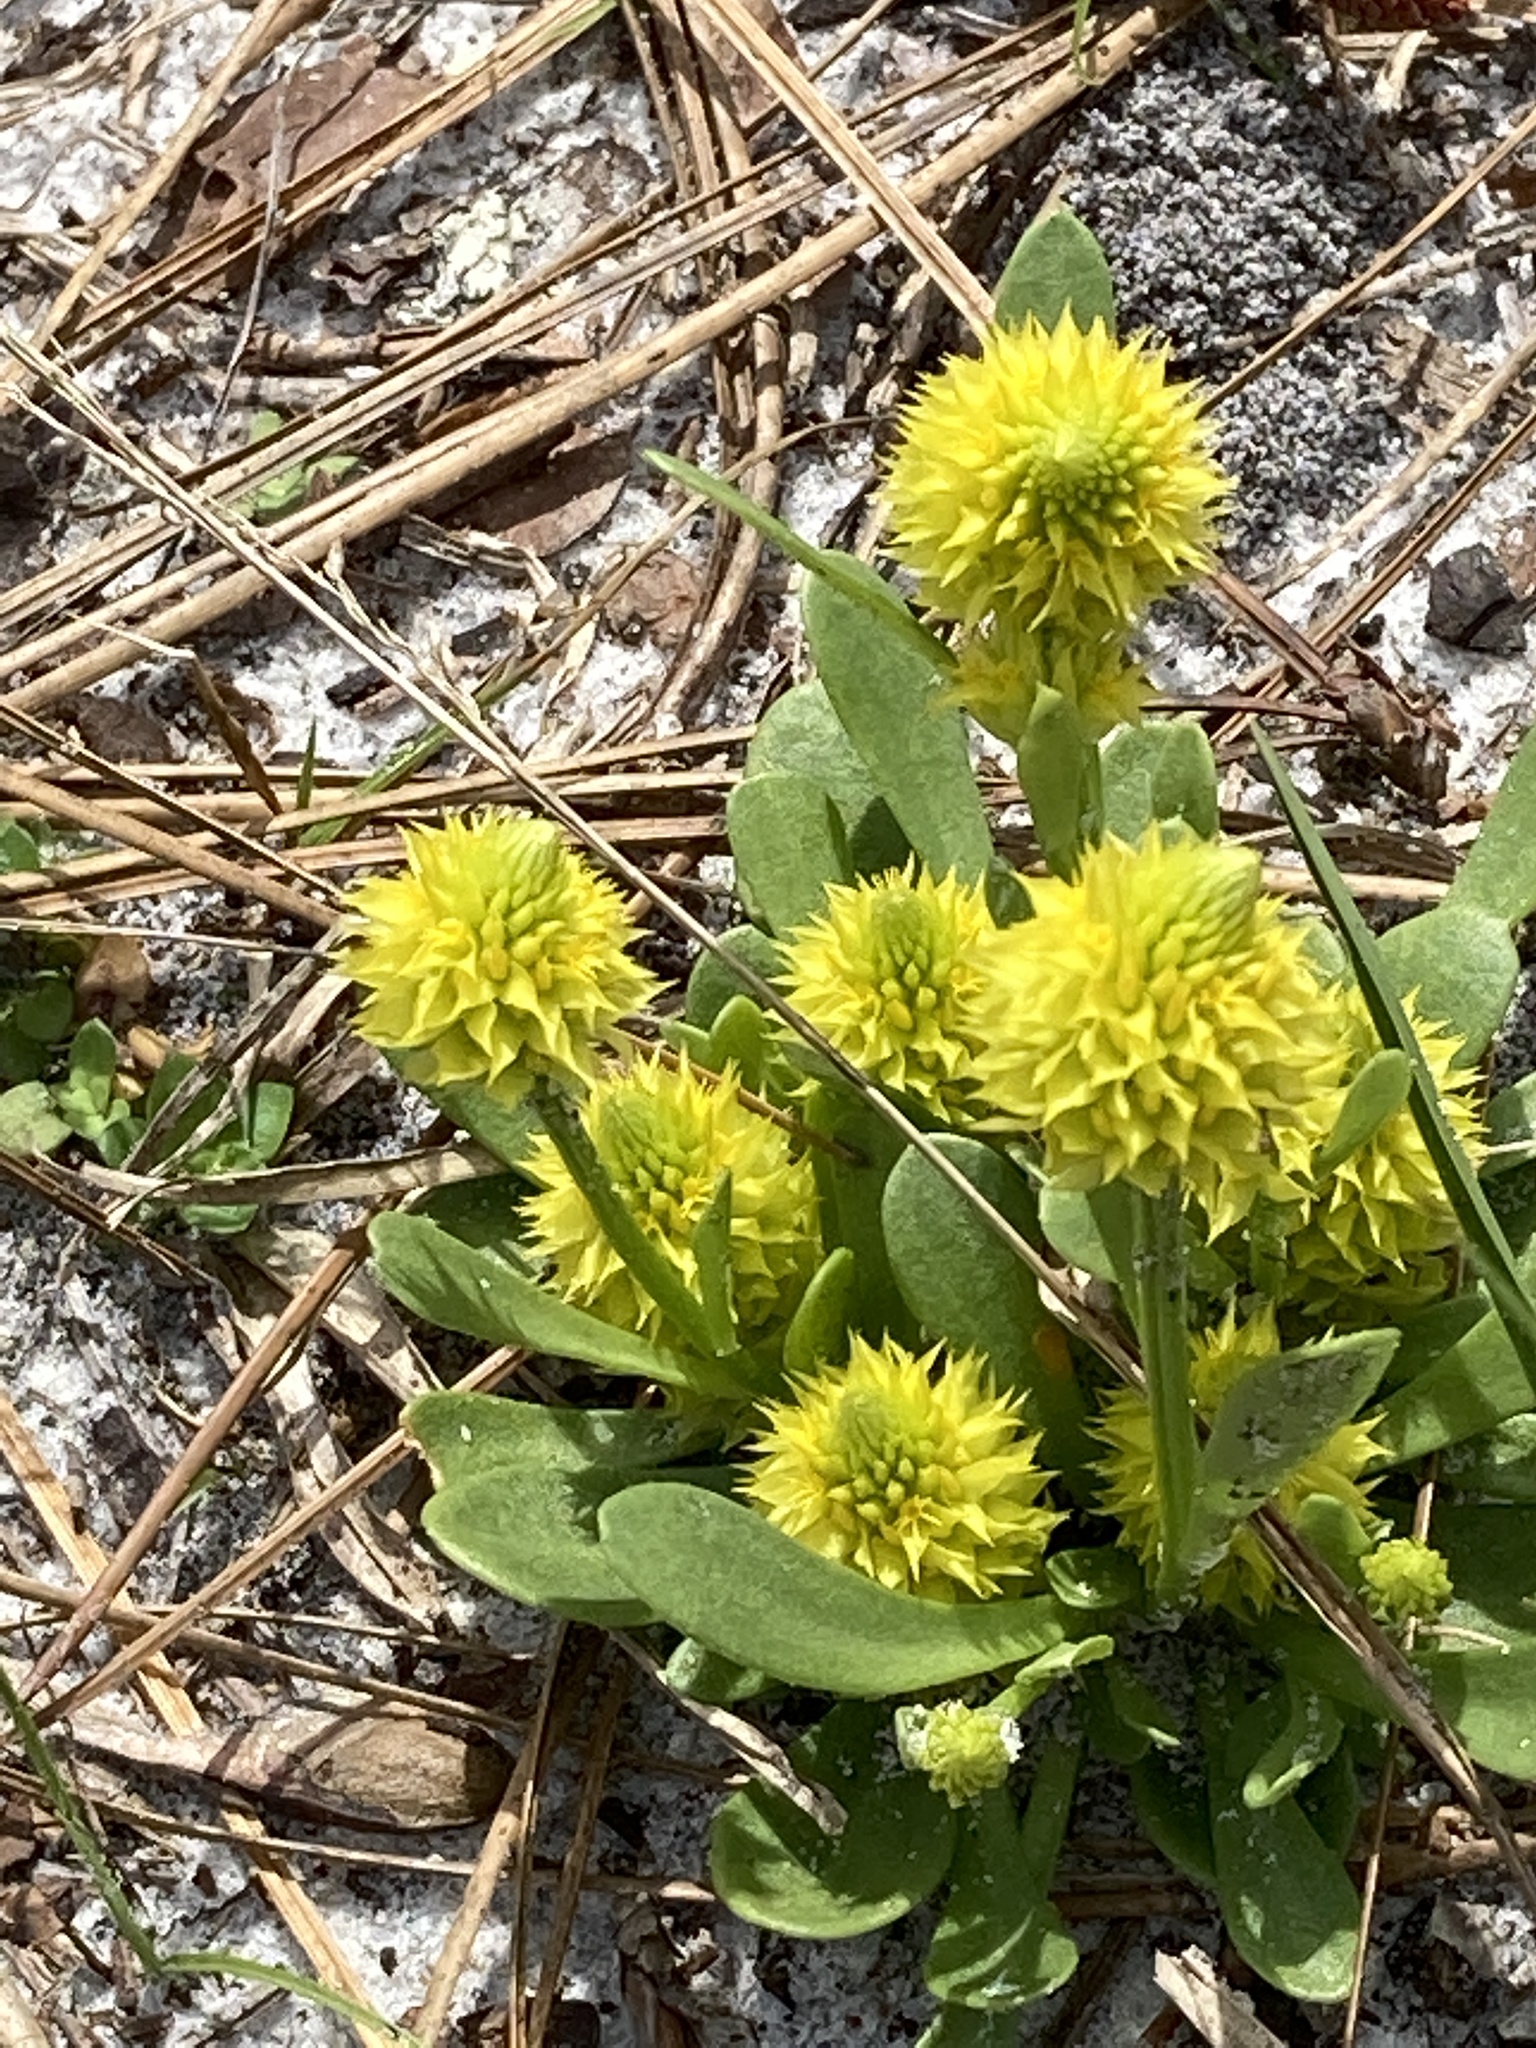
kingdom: Plantae
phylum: Tracheophyta
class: Magnoliopsida
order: Fabales
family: Polygalaceae
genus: Polygala
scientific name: Polygala nana
